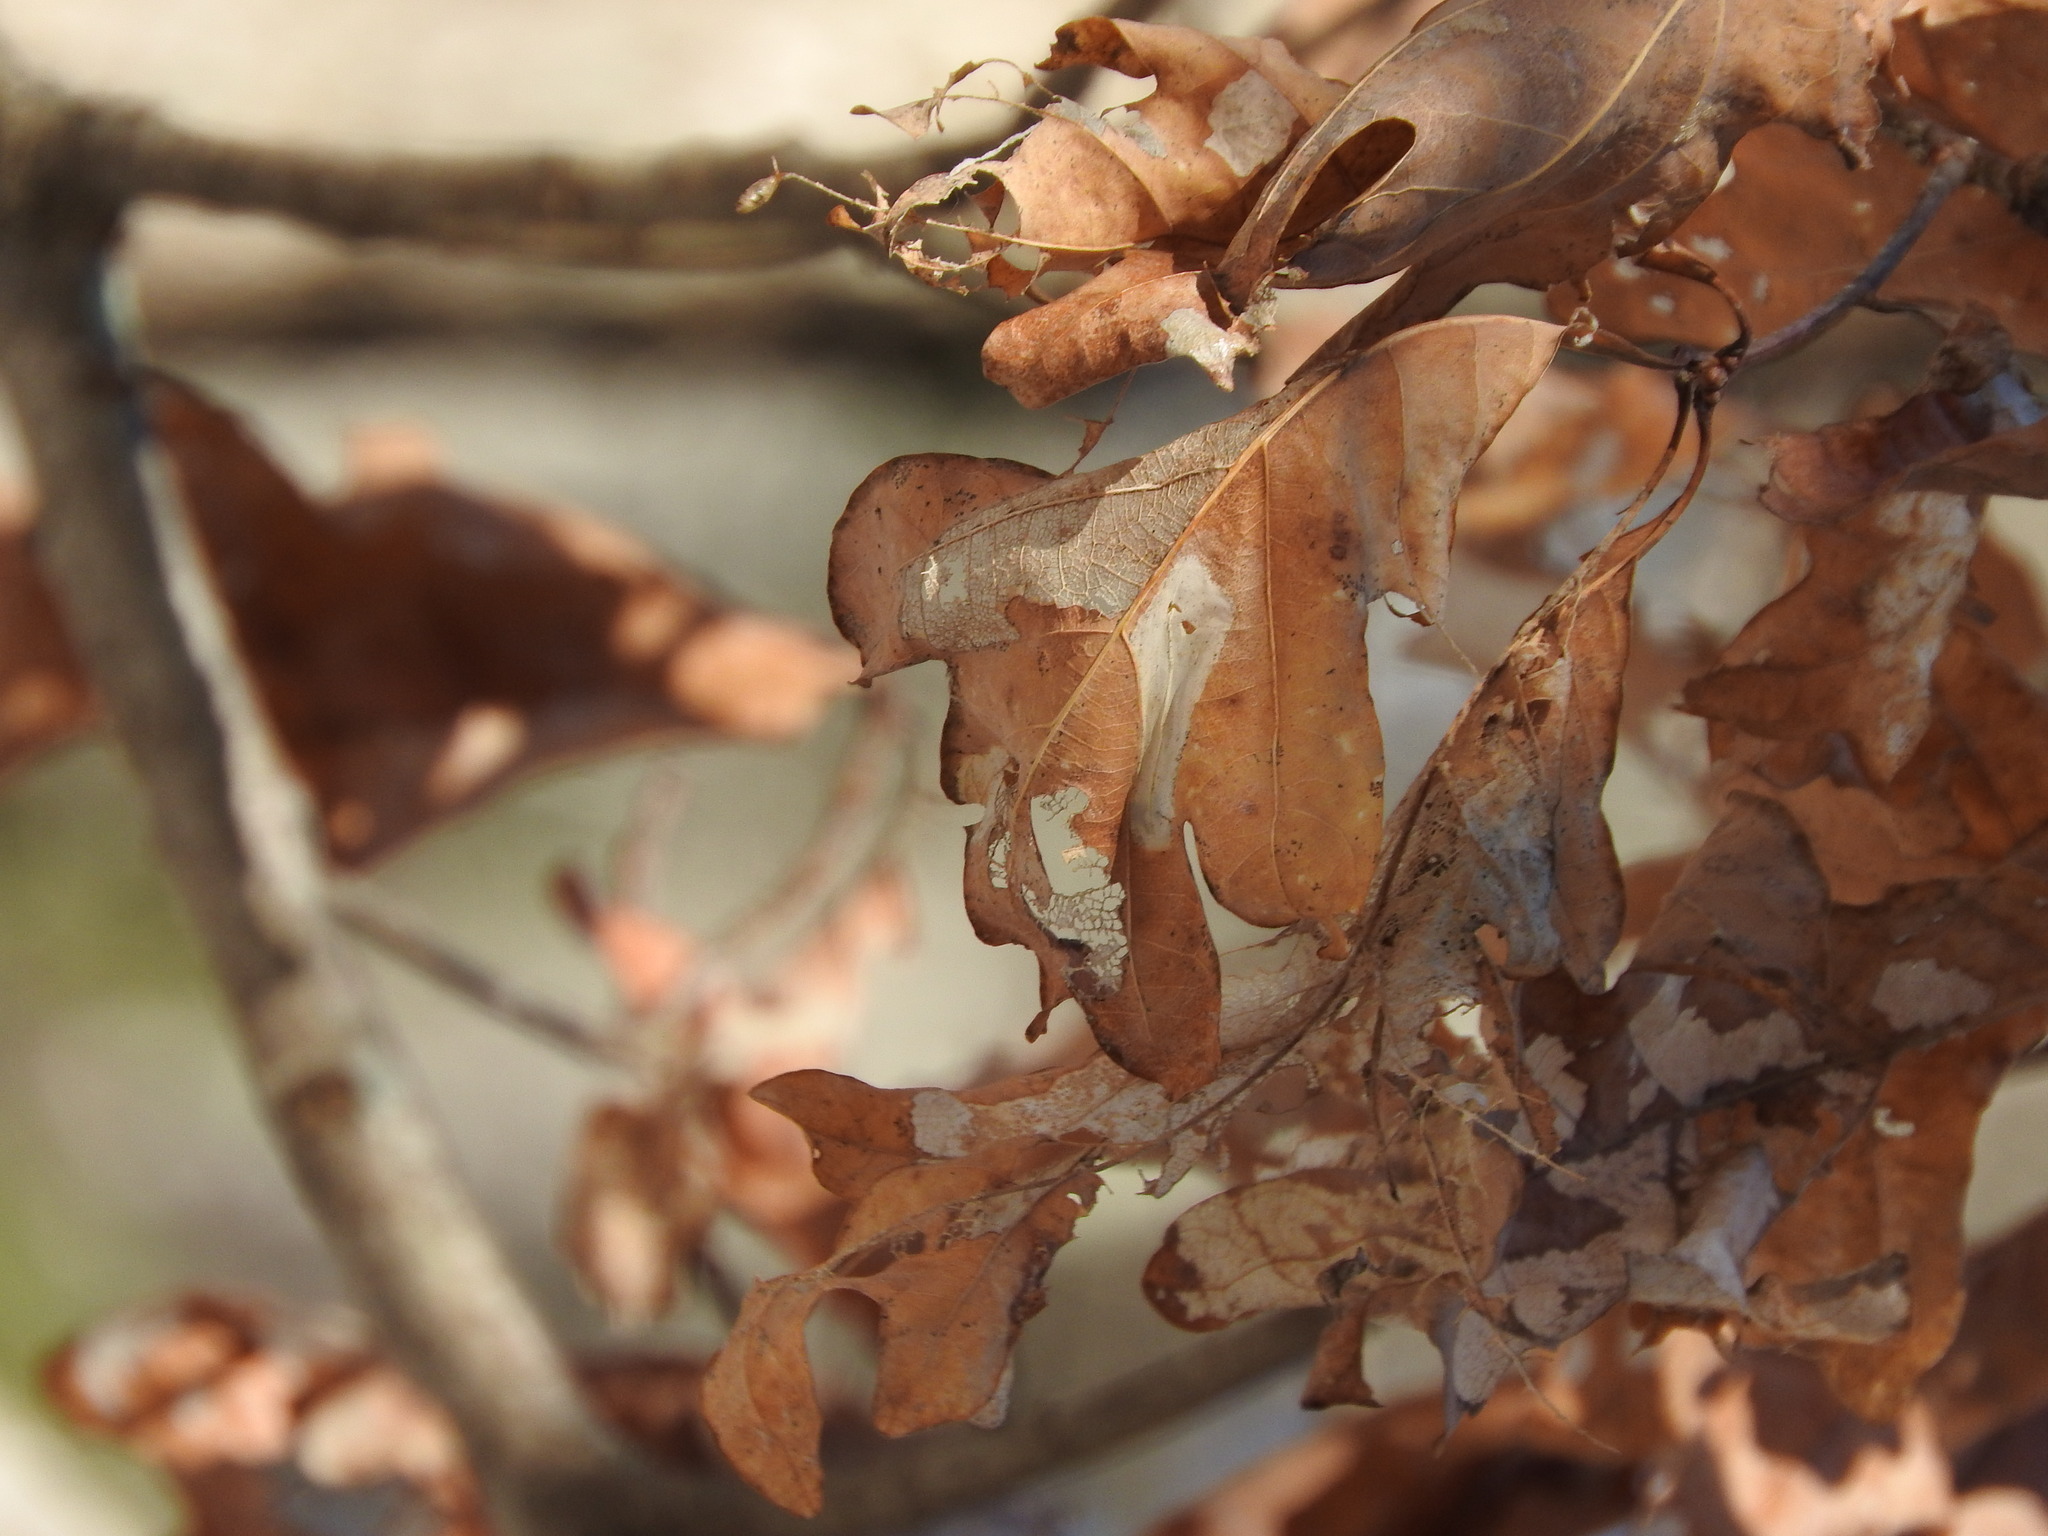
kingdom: Plantae
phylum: Tracheophyta
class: Magnoliopsida
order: Fagales
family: Fagaceae
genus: Quercus
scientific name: Quercus alba
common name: White oak
